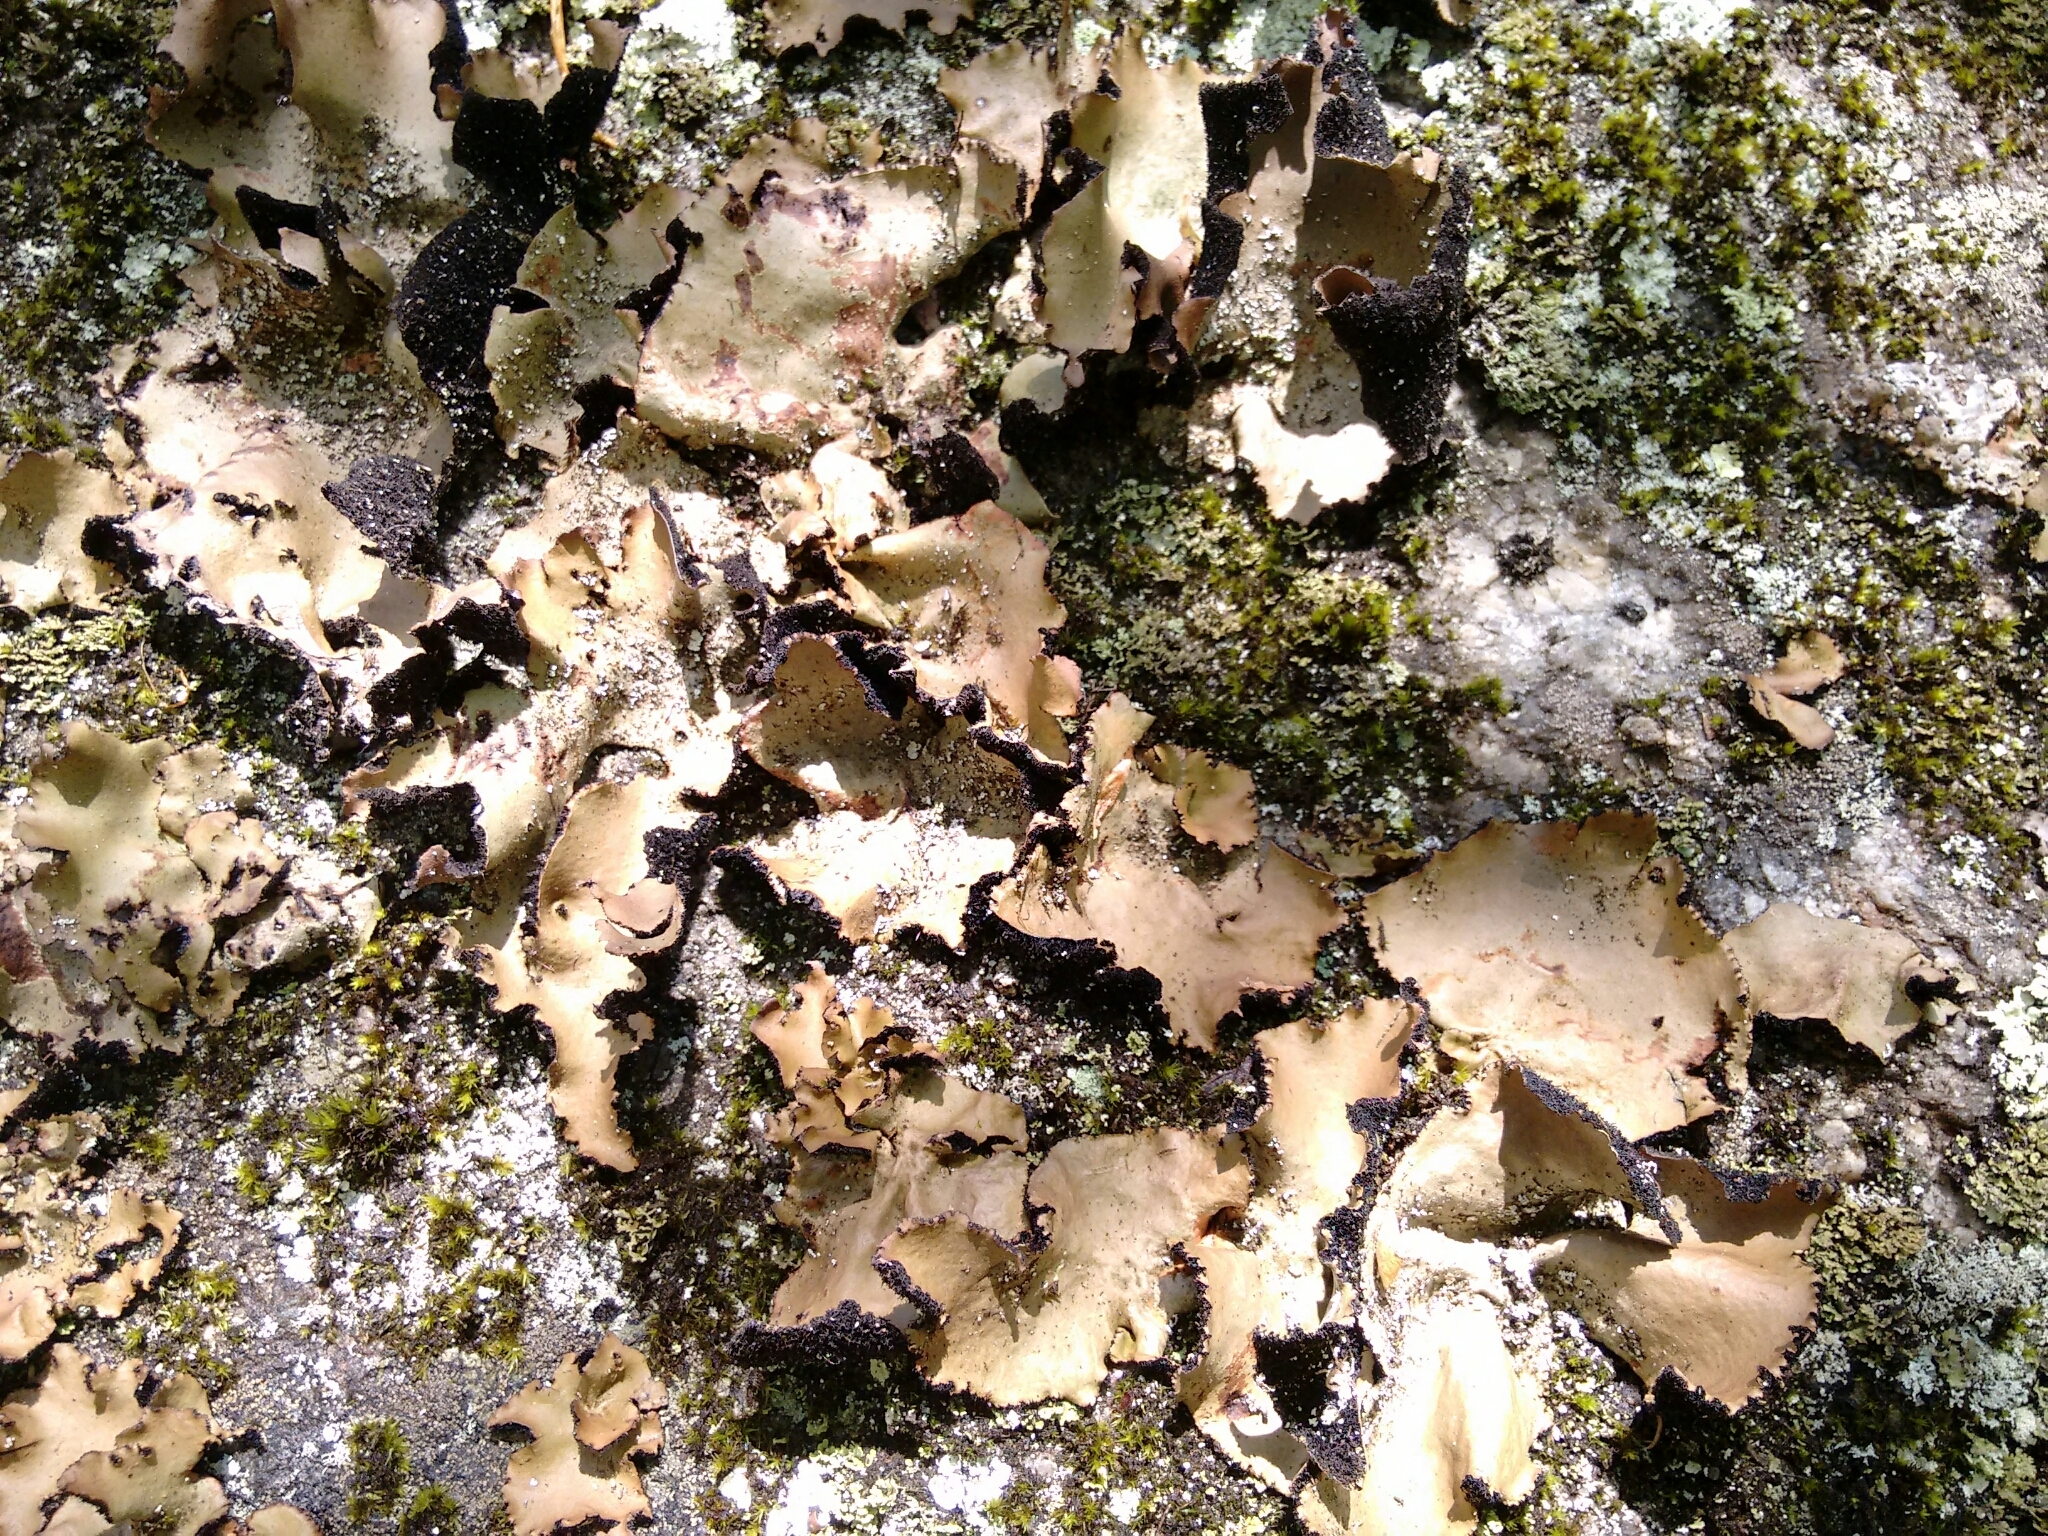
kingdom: Fungi
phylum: Ascomycota
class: Lecanoromycetes
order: Umbilicariales
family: Umbilicariaceae
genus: Umbilicaria
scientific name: Umbilicaria mammulata
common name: Smooth rock tripe
